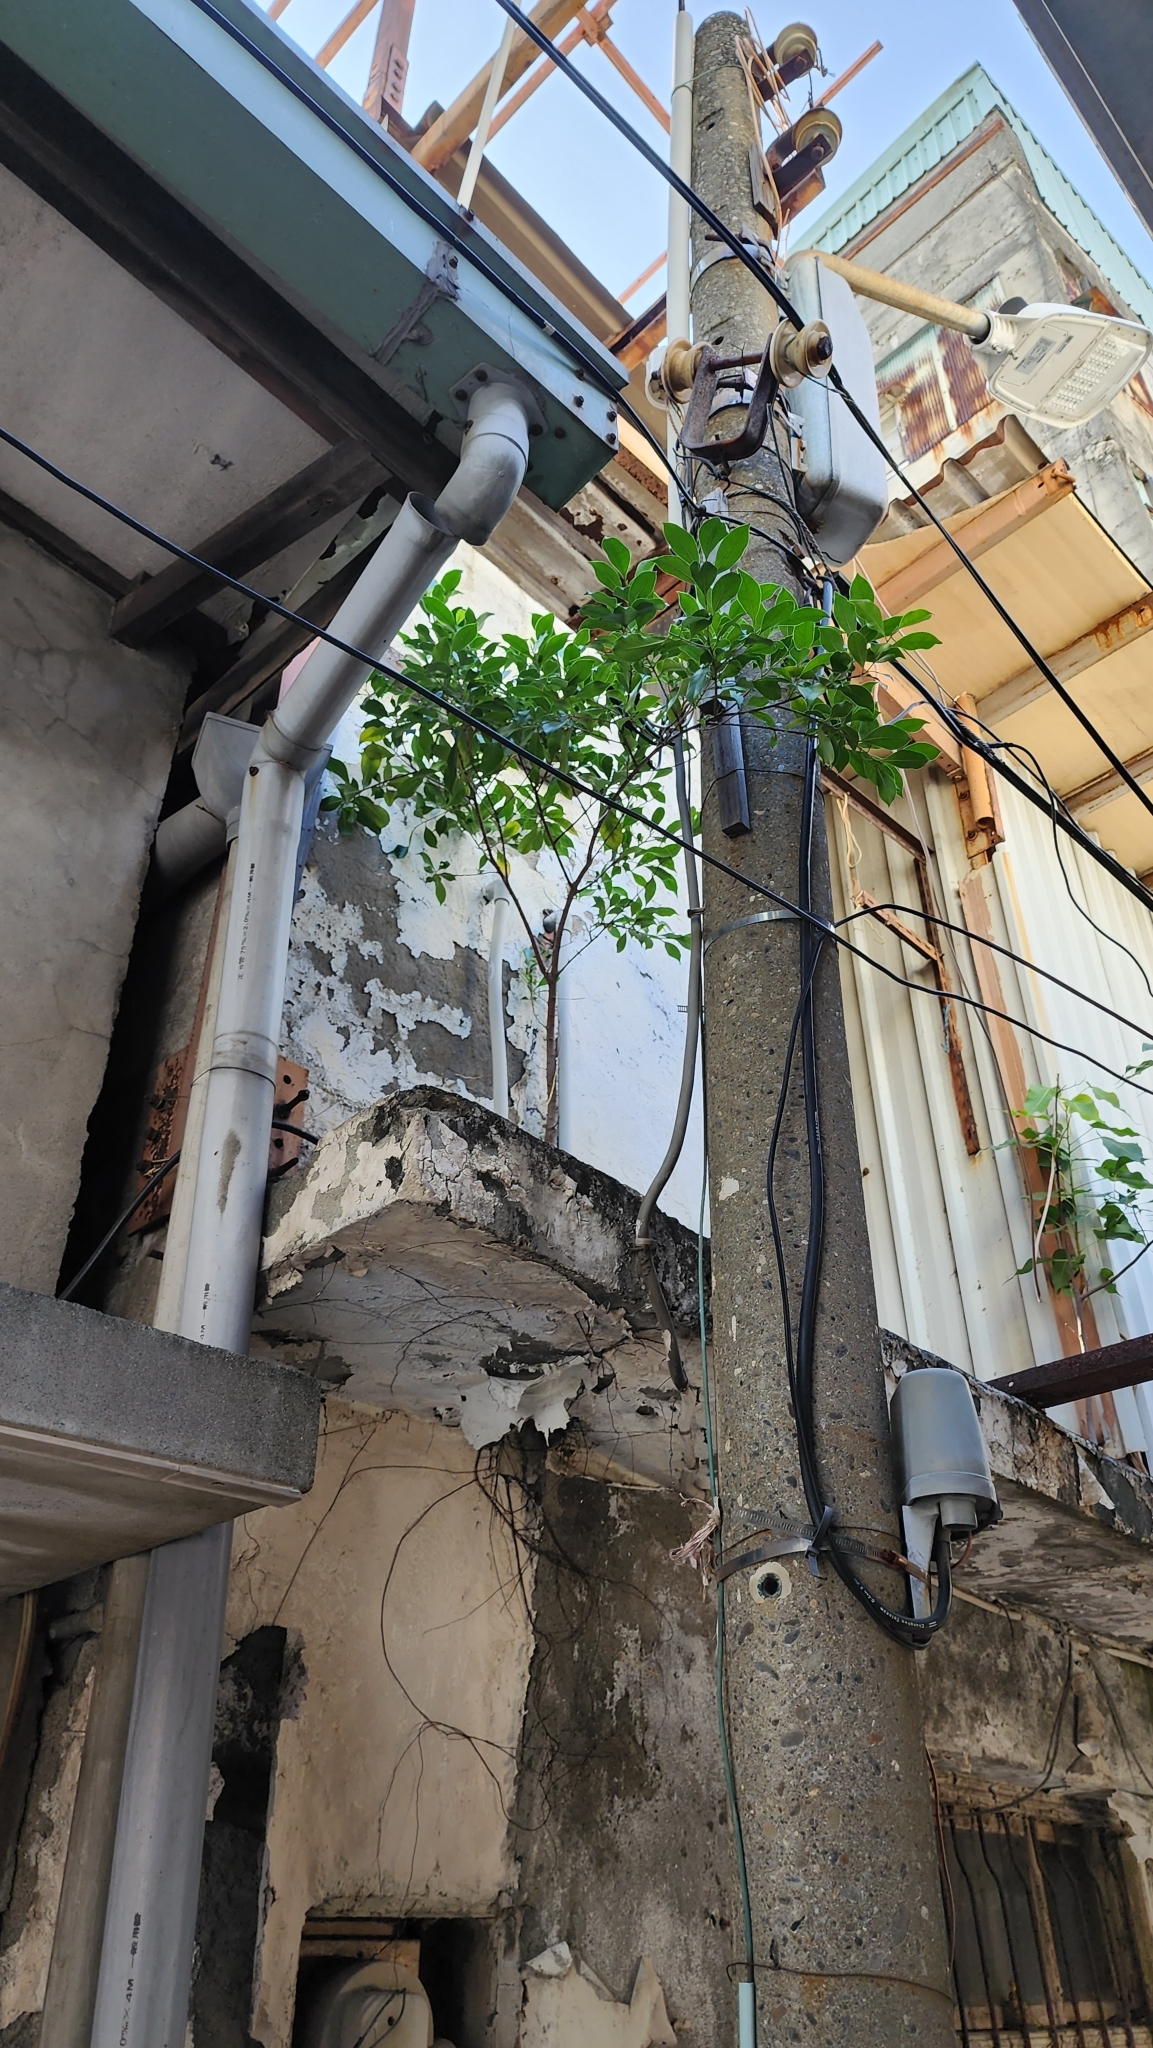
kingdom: Plantae
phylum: Tracheophyta
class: Magnoliopsida
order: Rosales
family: Moraceae
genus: Ficus
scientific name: Ficus microcarpa
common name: Chinese banyan
